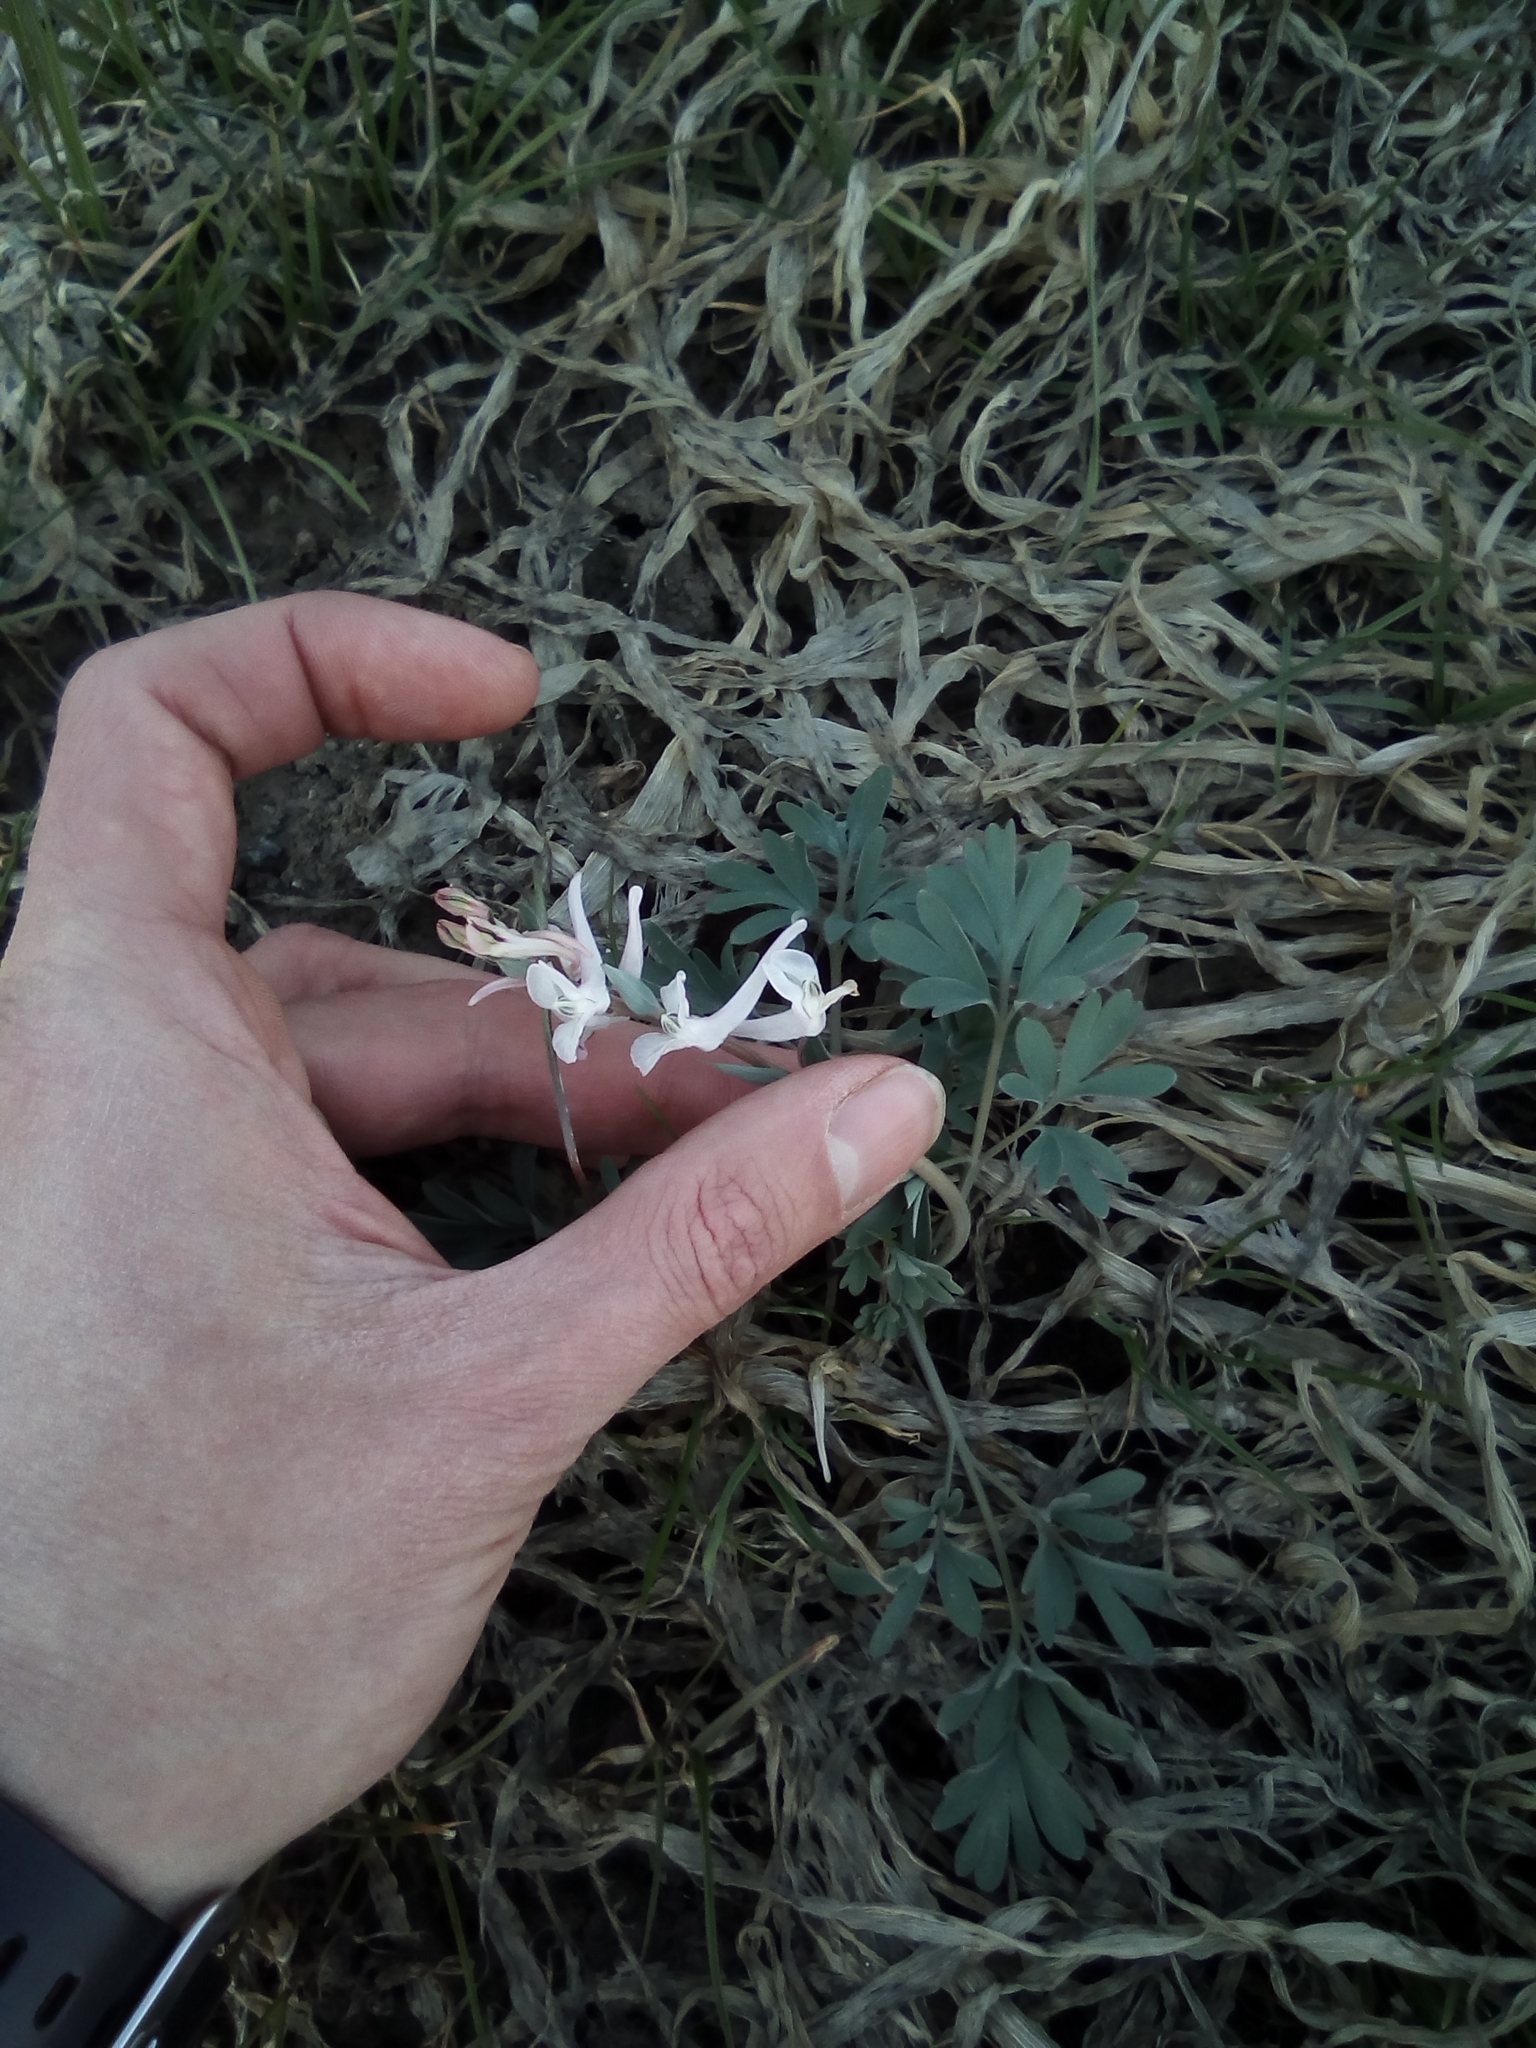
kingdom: Plantae
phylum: Tracheophyta
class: Magnoliopsida
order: Ranunculales
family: Papaveraceae
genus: Corydalis
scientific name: Corydalis glaucescens
